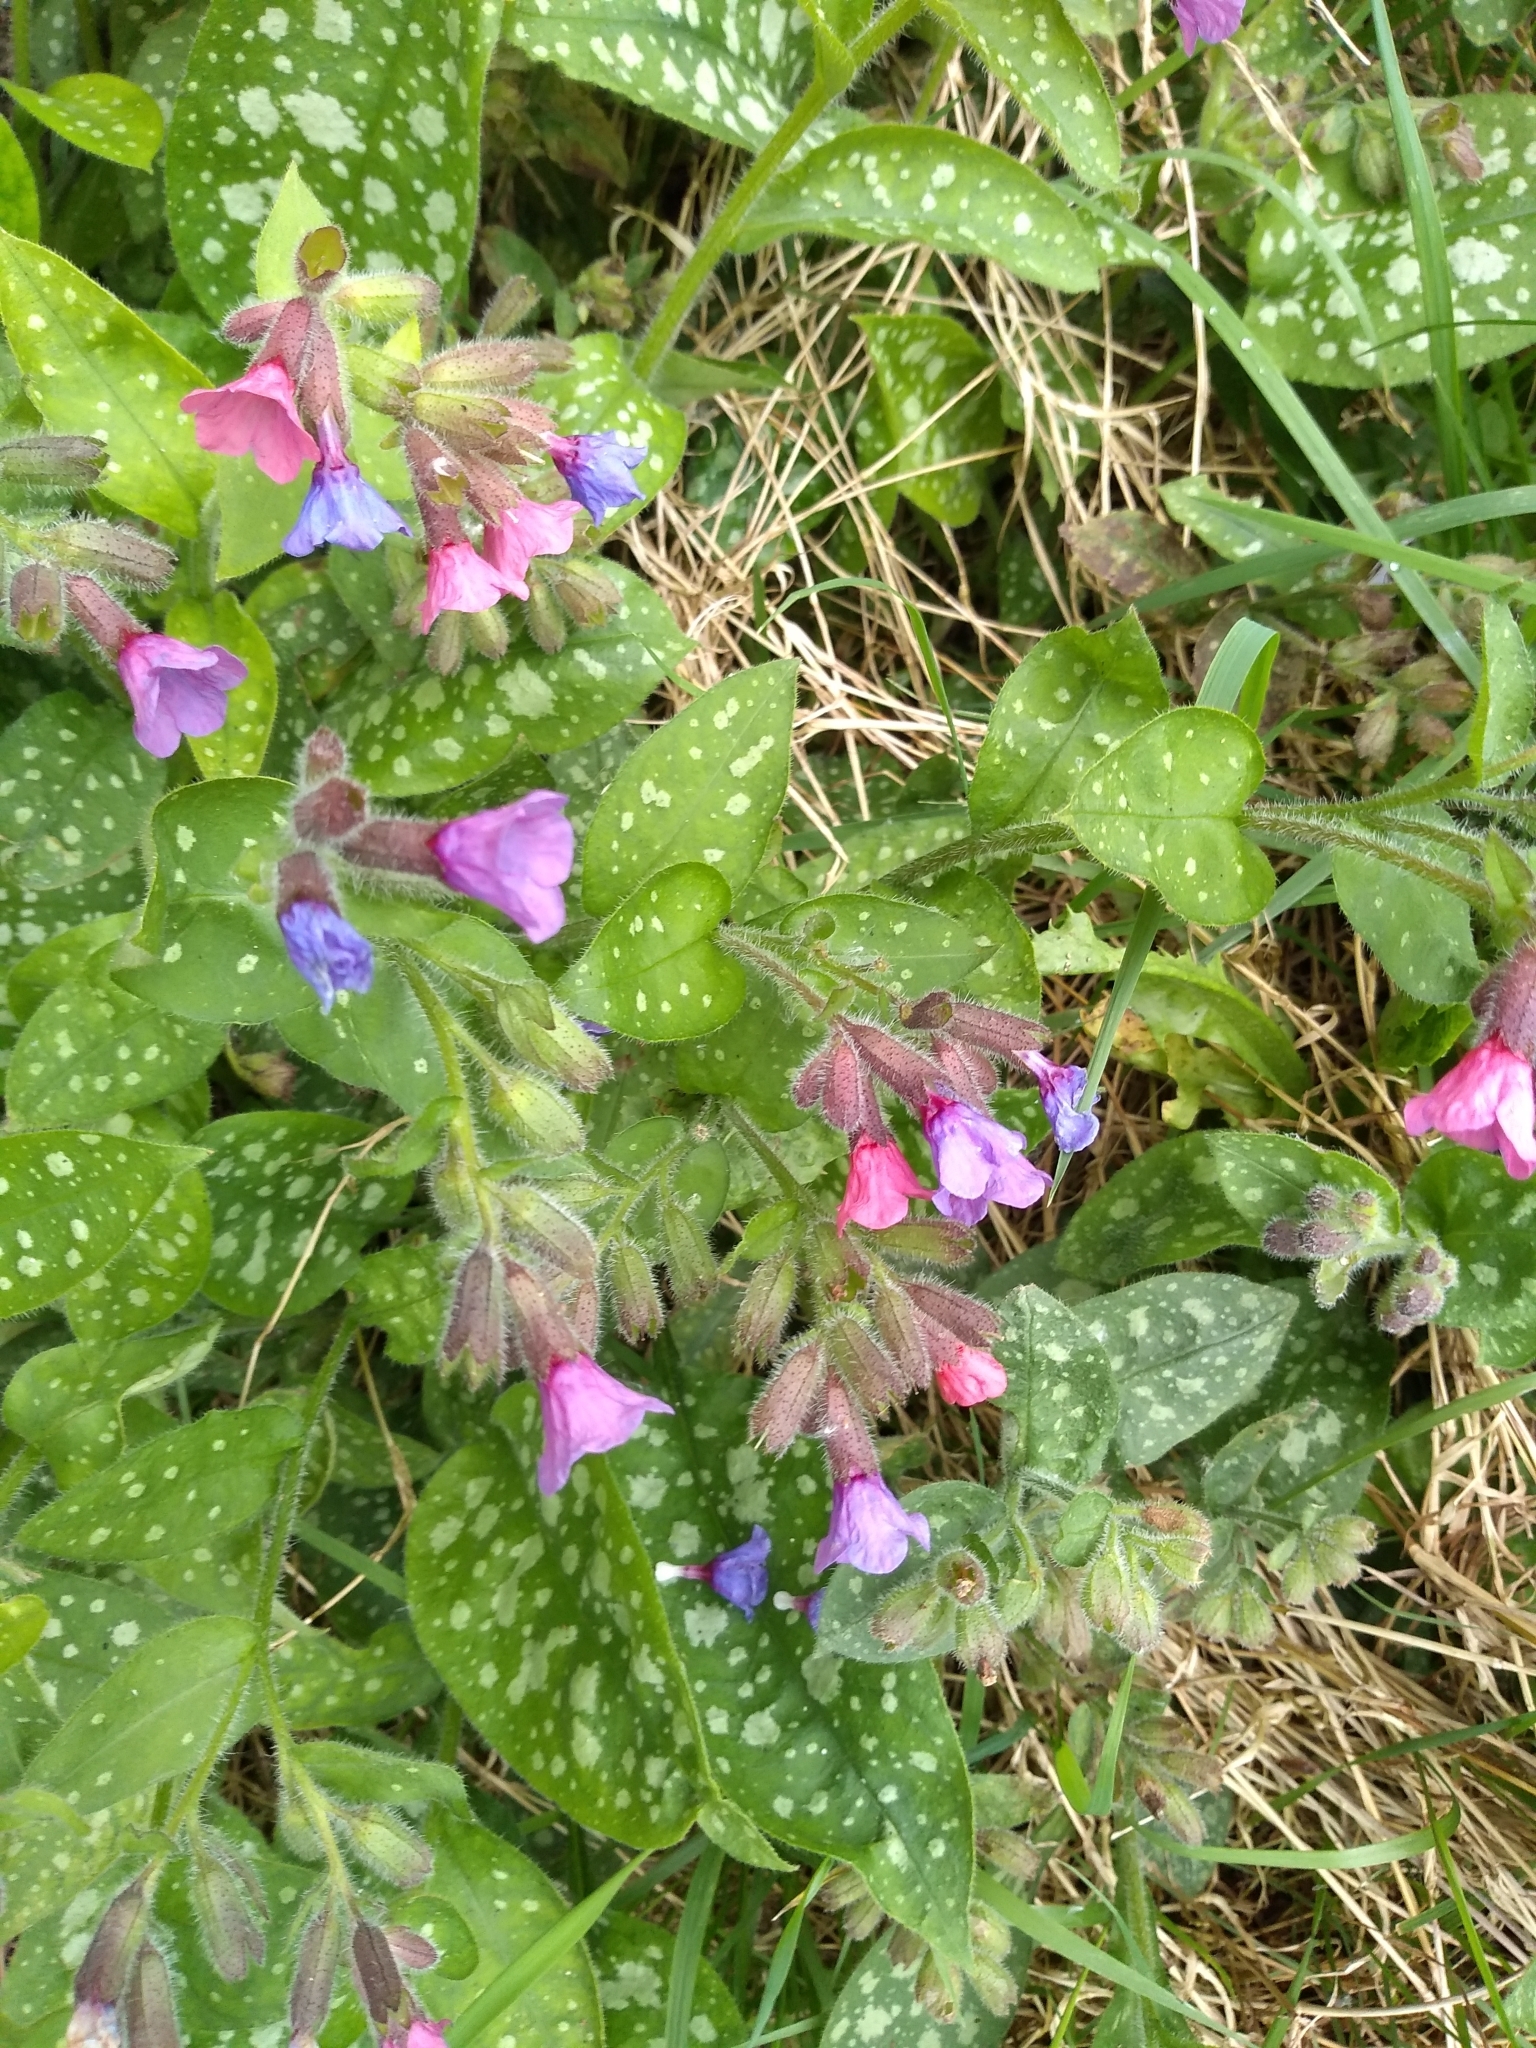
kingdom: Plantae
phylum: Tracheophyta
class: Magnoliopsida
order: Boraginales
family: Boraginaceae
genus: Pulmonaria
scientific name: Pulmonaria officinalis
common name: Lungwort
